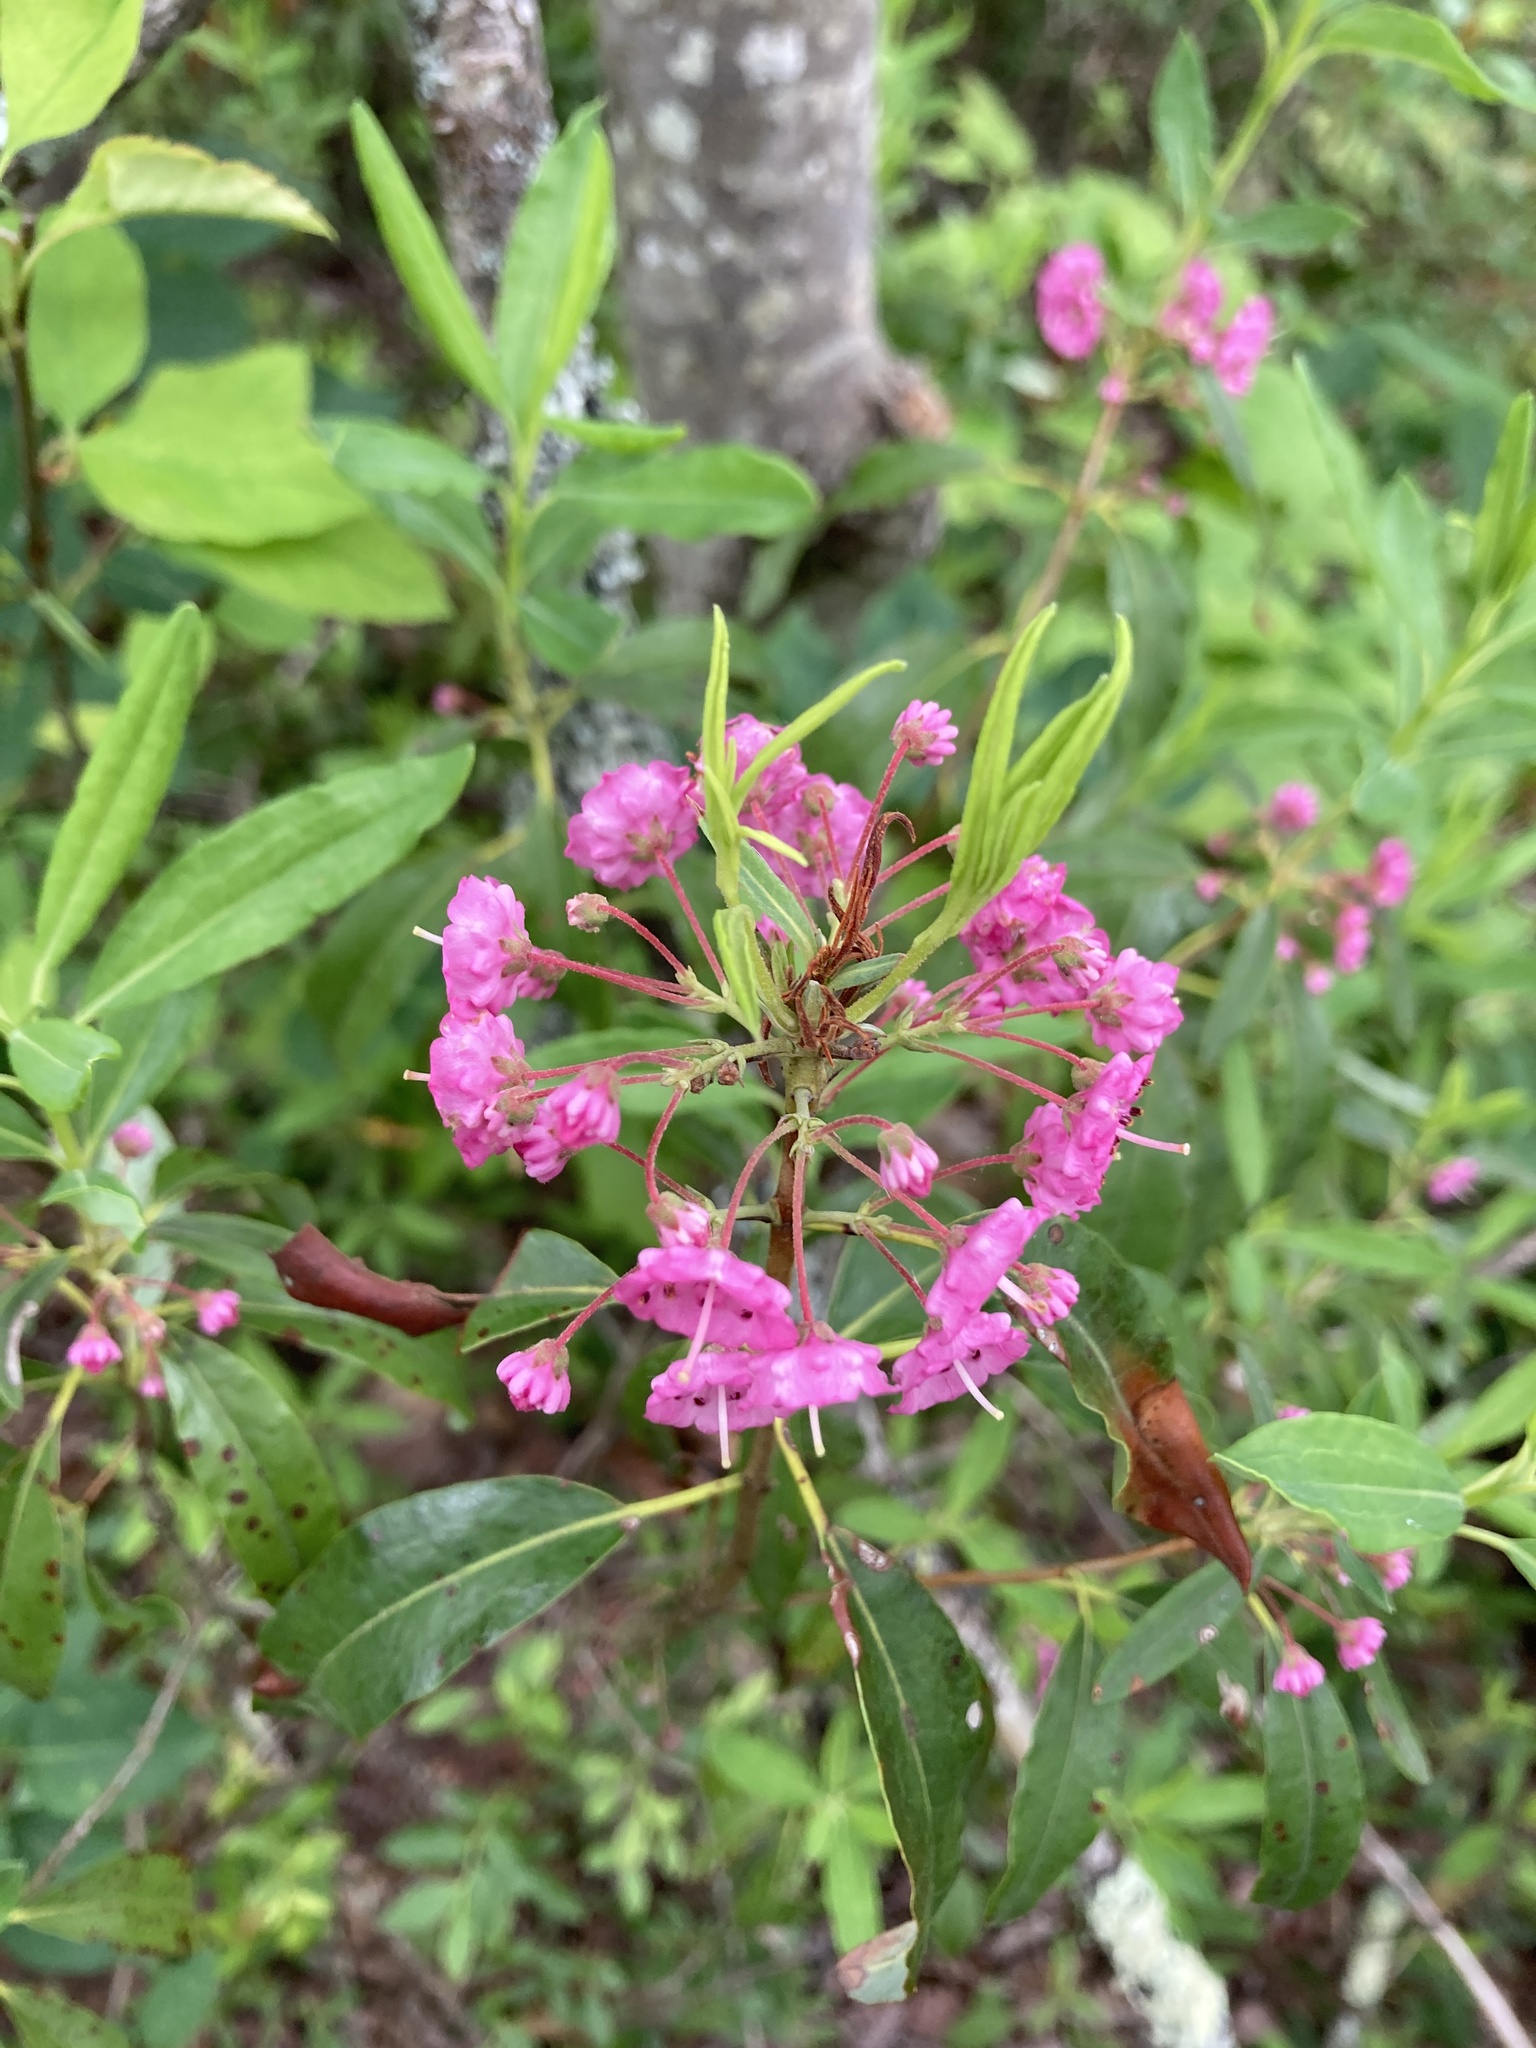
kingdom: Plantae
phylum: Tracheophyta
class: Magnoliopsida
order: Ericales
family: Ericaceae
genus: Kalmia
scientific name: Kalmia angustifolia
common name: Sheep-laurel
